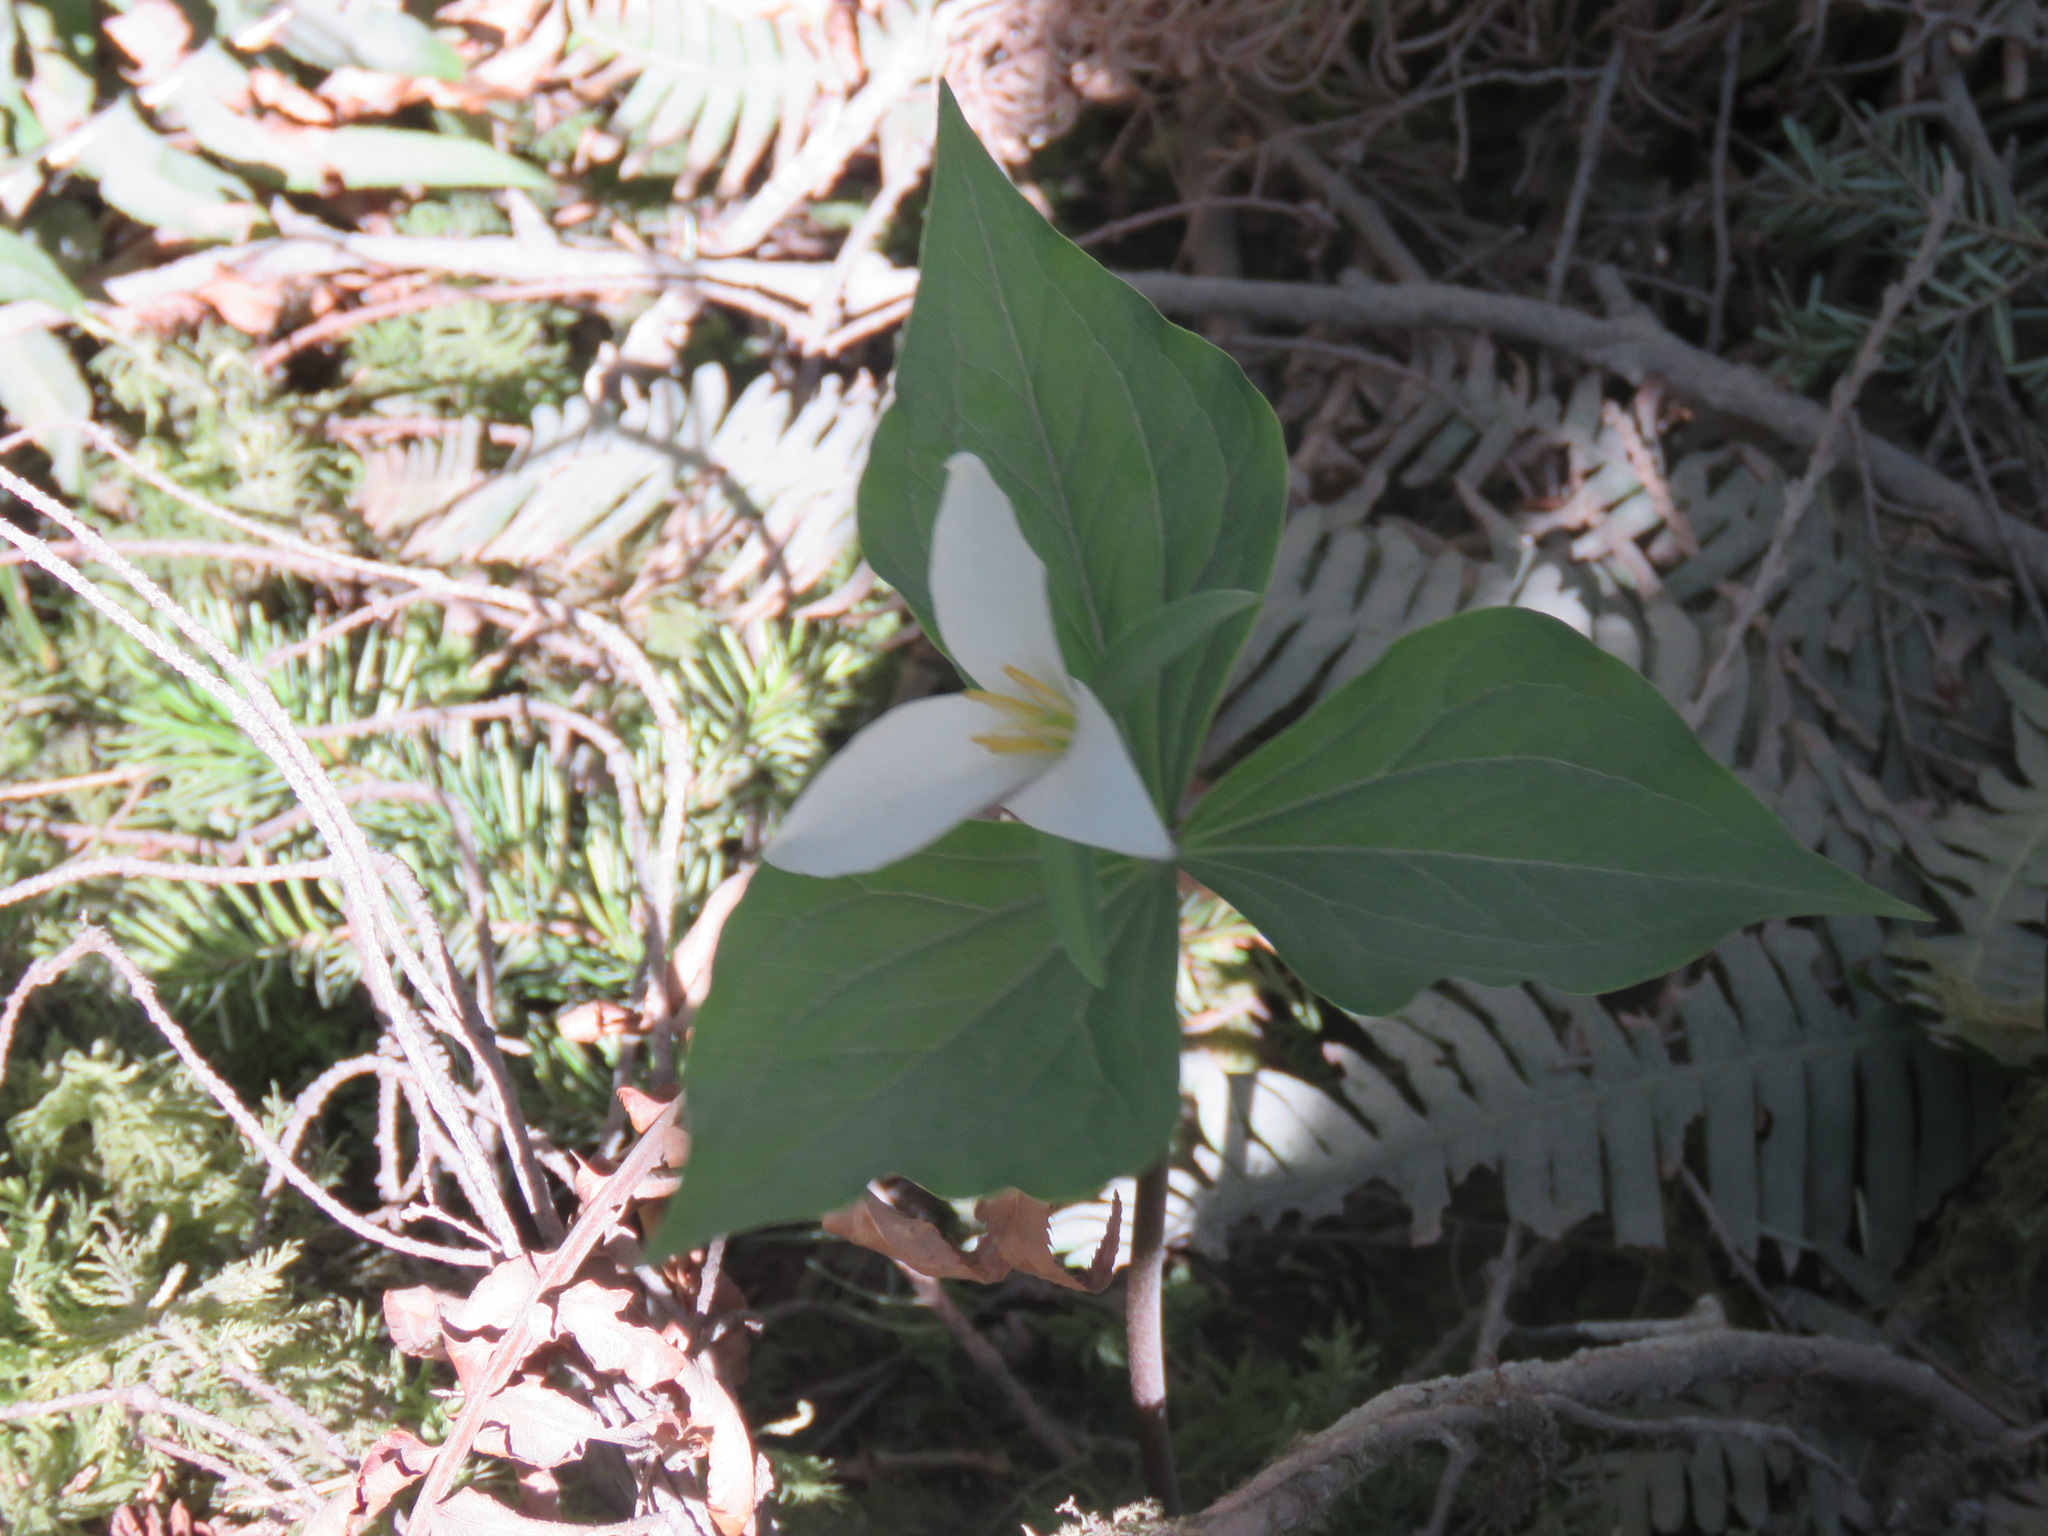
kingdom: Plantae
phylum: Tracheophyta
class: Liliopsida
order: Liliales
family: Melanthiaceae
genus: Trillium
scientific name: Trillium ovatum
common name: Pacific trillium
